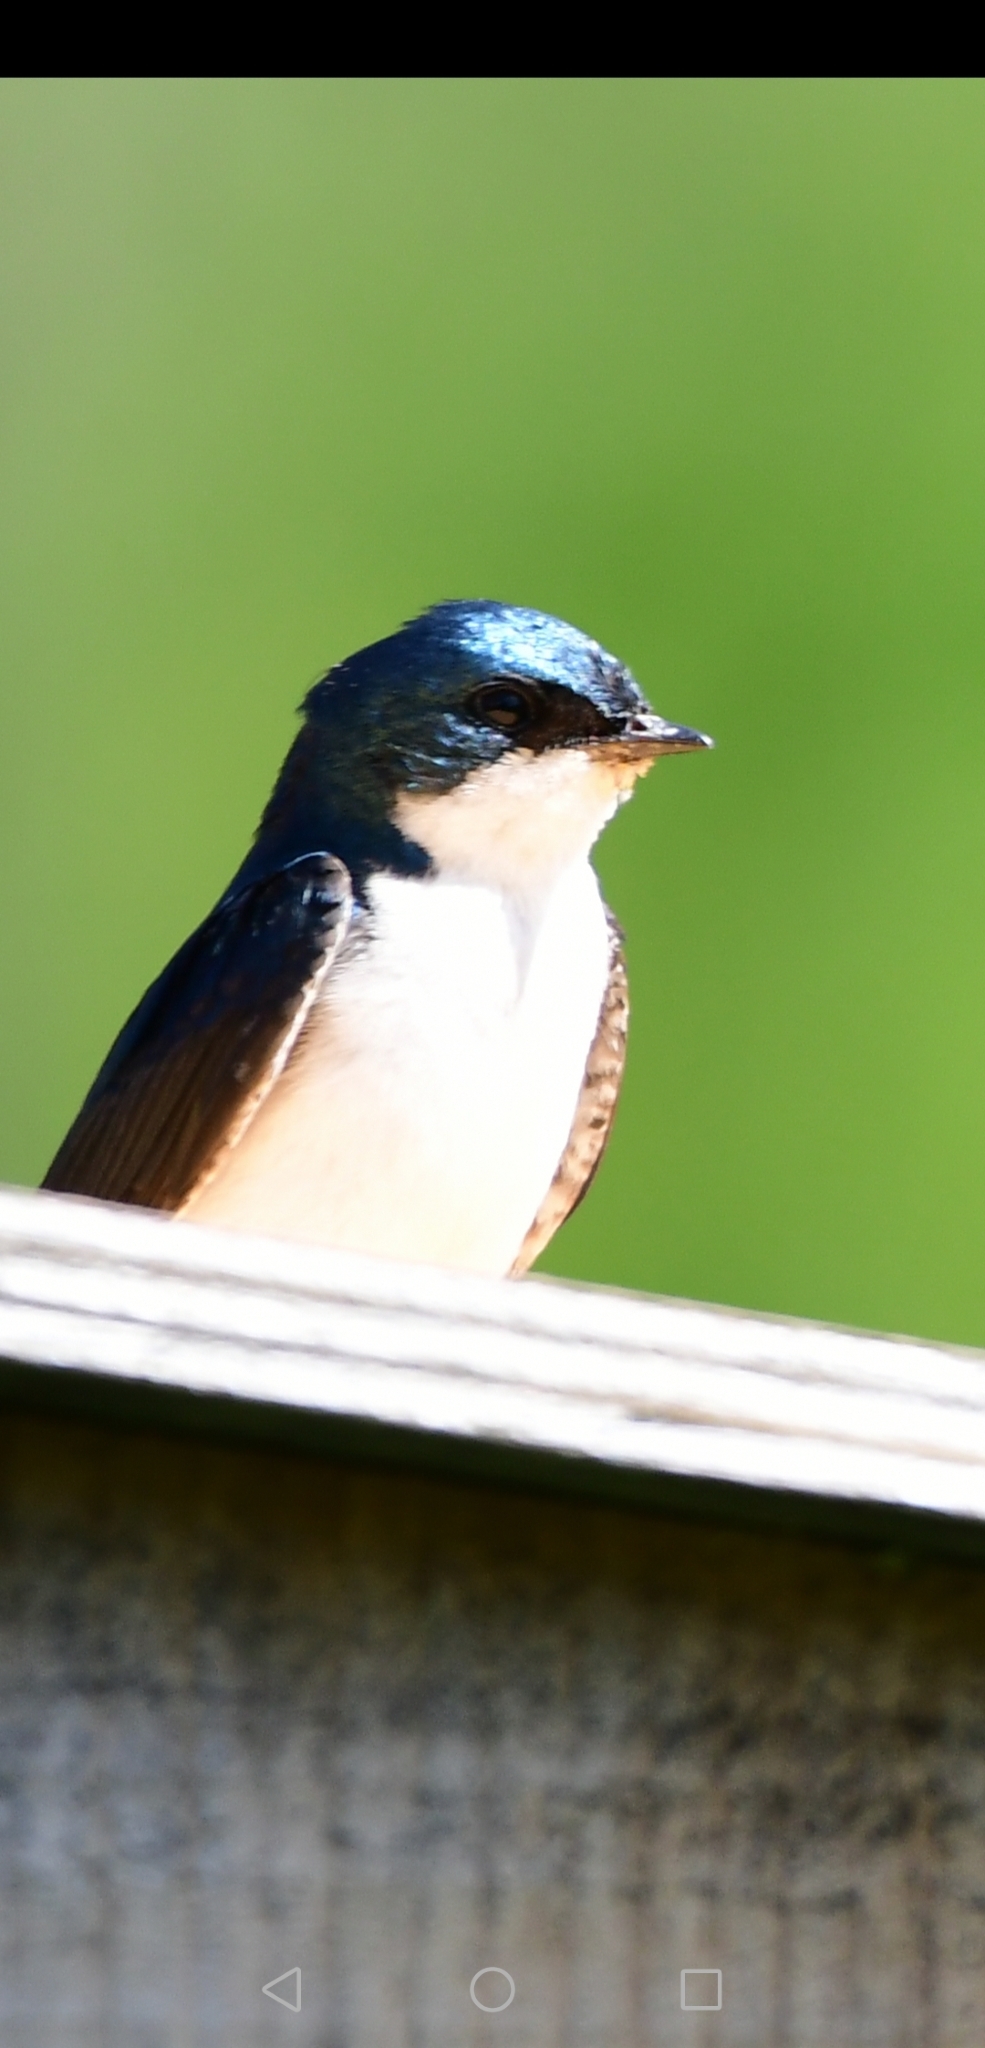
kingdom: Animalia
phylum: Chordata
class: Aves
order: Passeriformes
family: Hirundinidae
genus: Tachycineta
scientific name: Tachycineta bicolor
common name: Tree swallow
